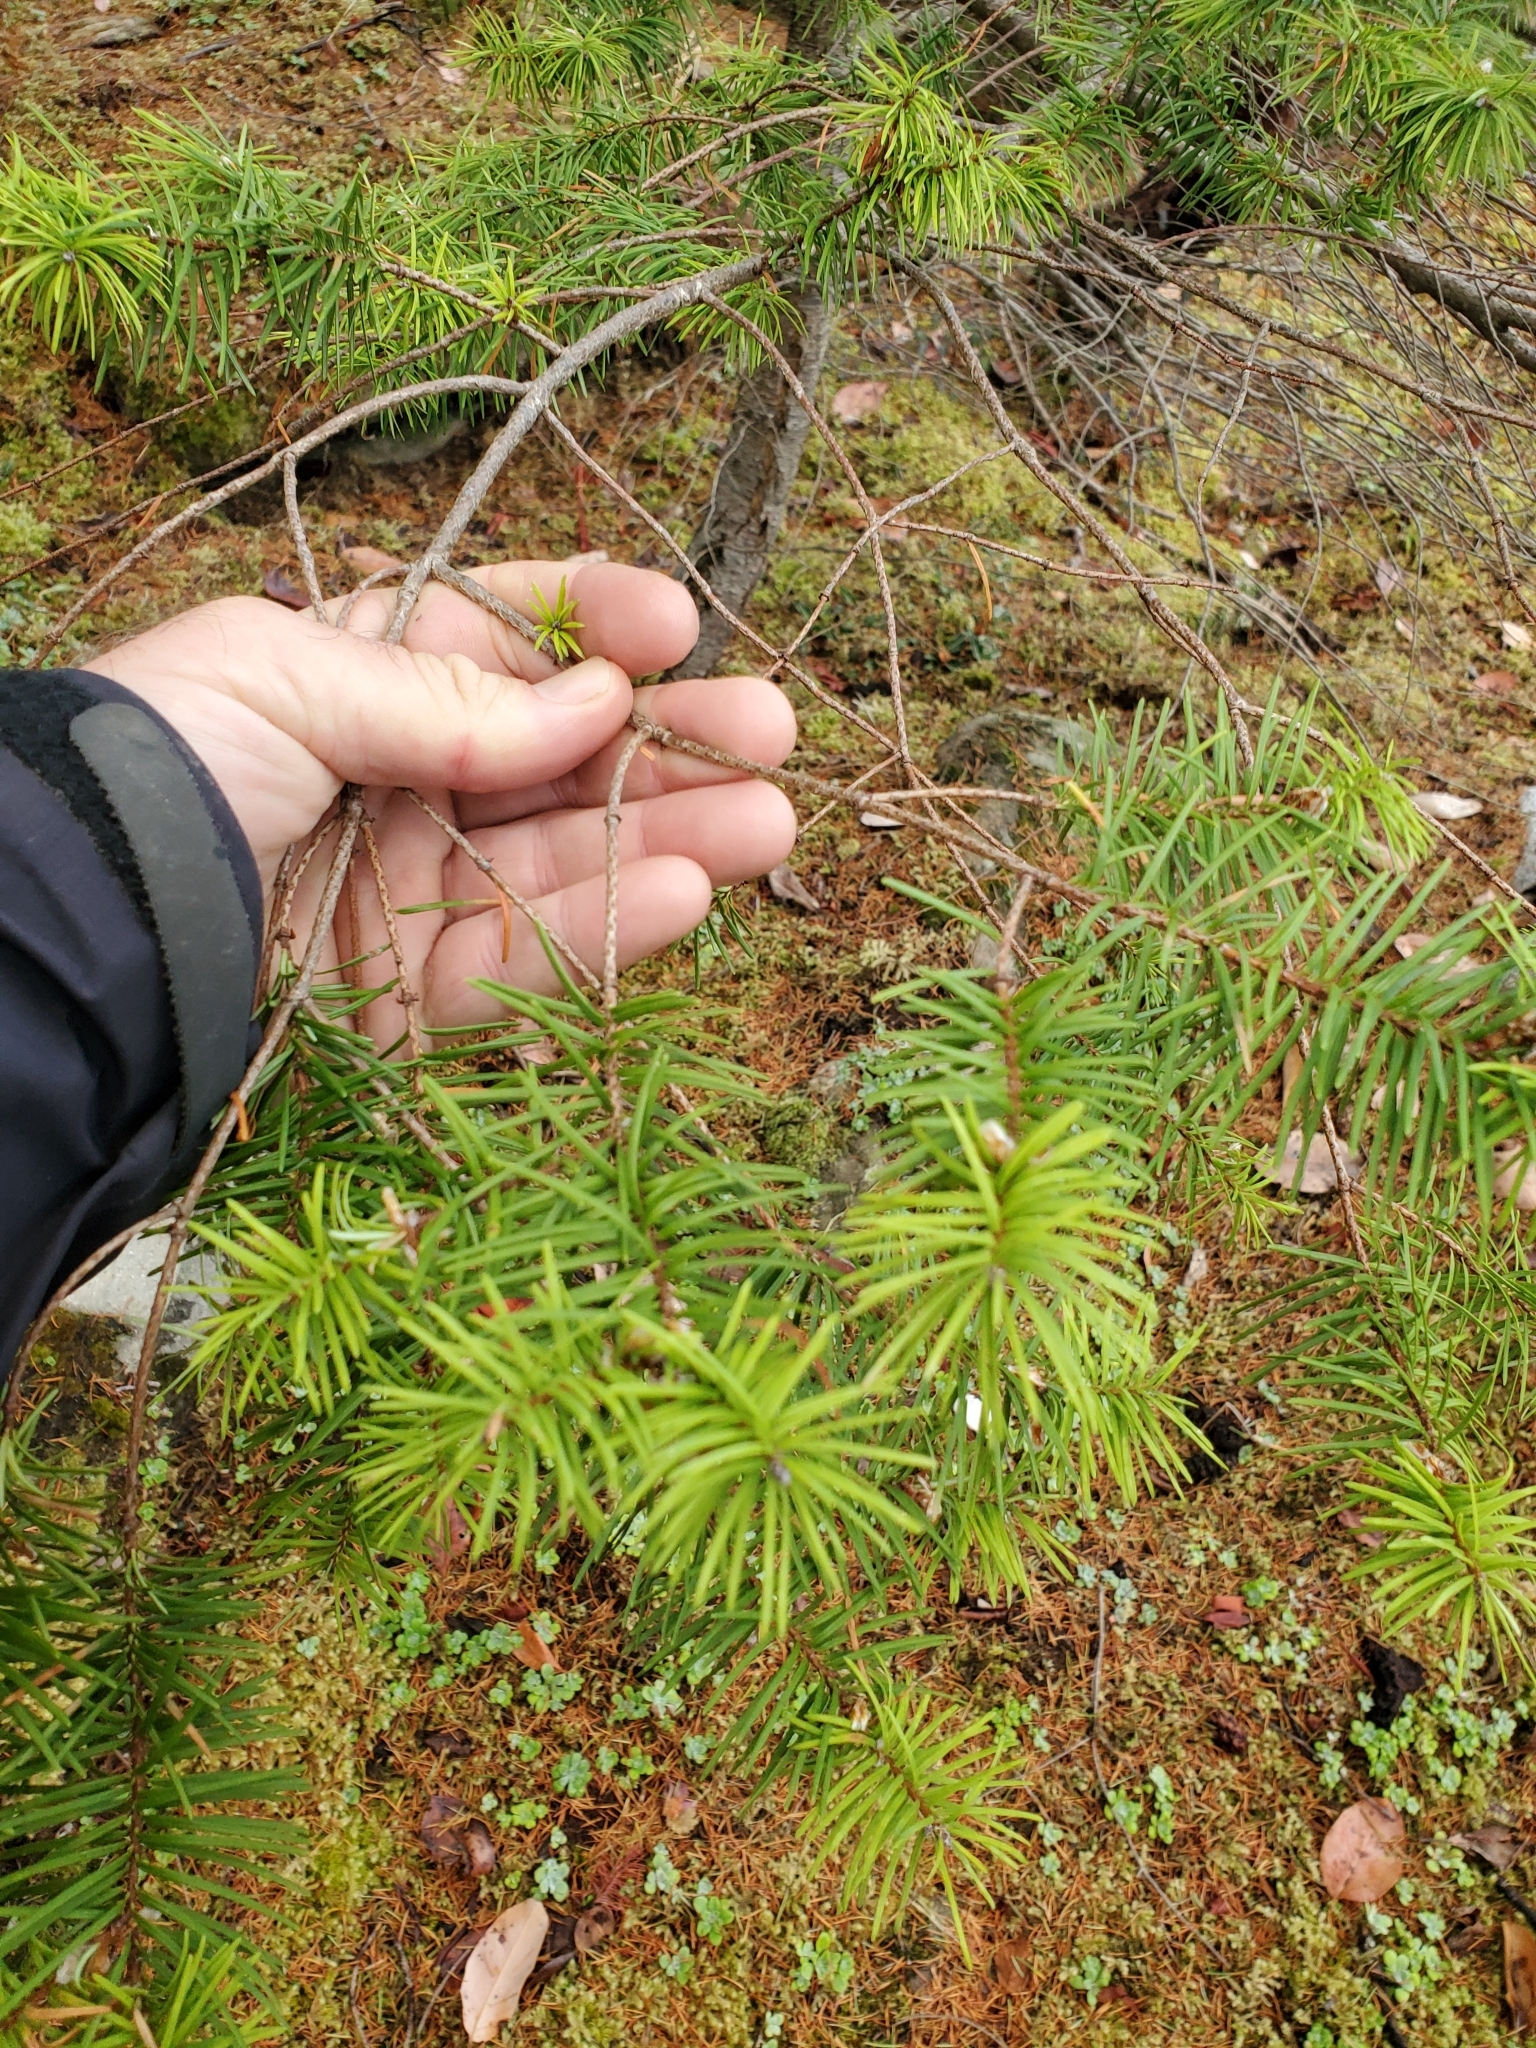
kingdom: Plantae
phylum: Tracheophyta
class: Pinopsida
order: Pinales
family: Pinaceae
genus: Pseudotsuga
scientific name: Pseudotsuga menziesii
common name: Douglas fir
